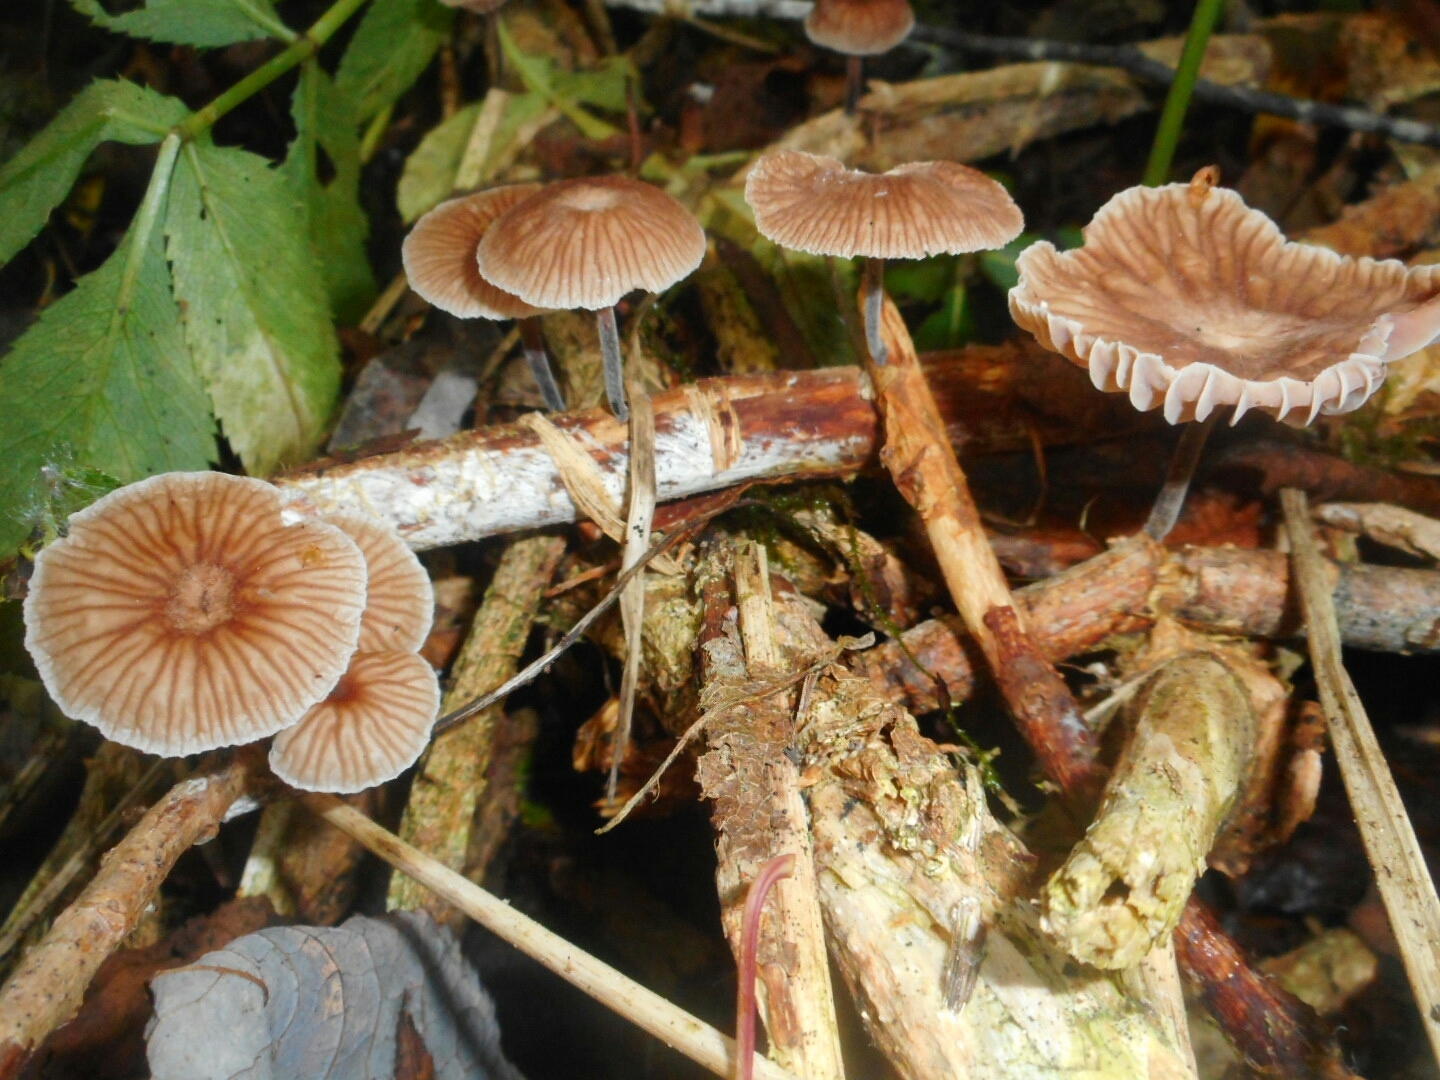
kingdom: Fungi
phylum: Basidiomycota
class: Agaricomycetes
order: Agaricales
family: Omphalotaceae
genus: Gymnopus
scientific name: Gymnopus foetidus
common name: Foetid parachute
